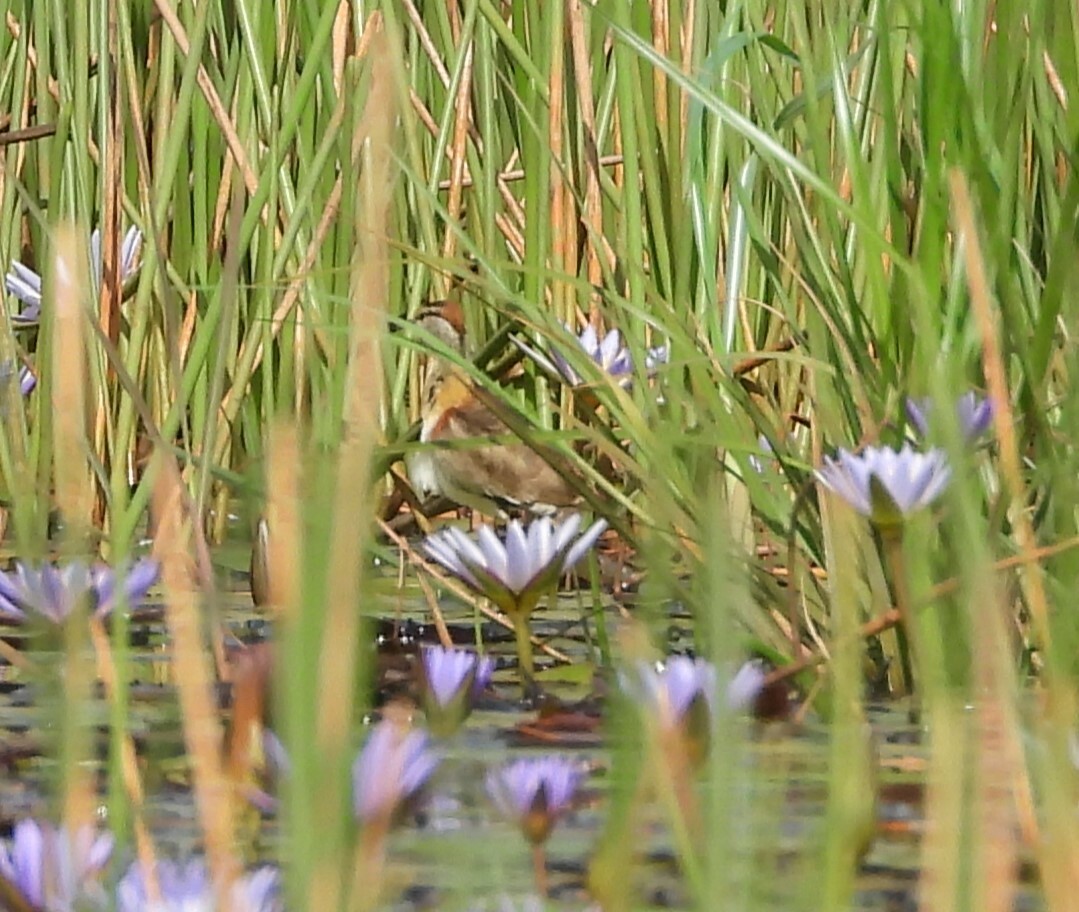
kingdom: Animalia
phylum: Chordata
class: Aves
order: Charadriiformes
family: Jacanidae
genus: Microparra
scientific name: Microparra capensis
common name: Lesser jacana
